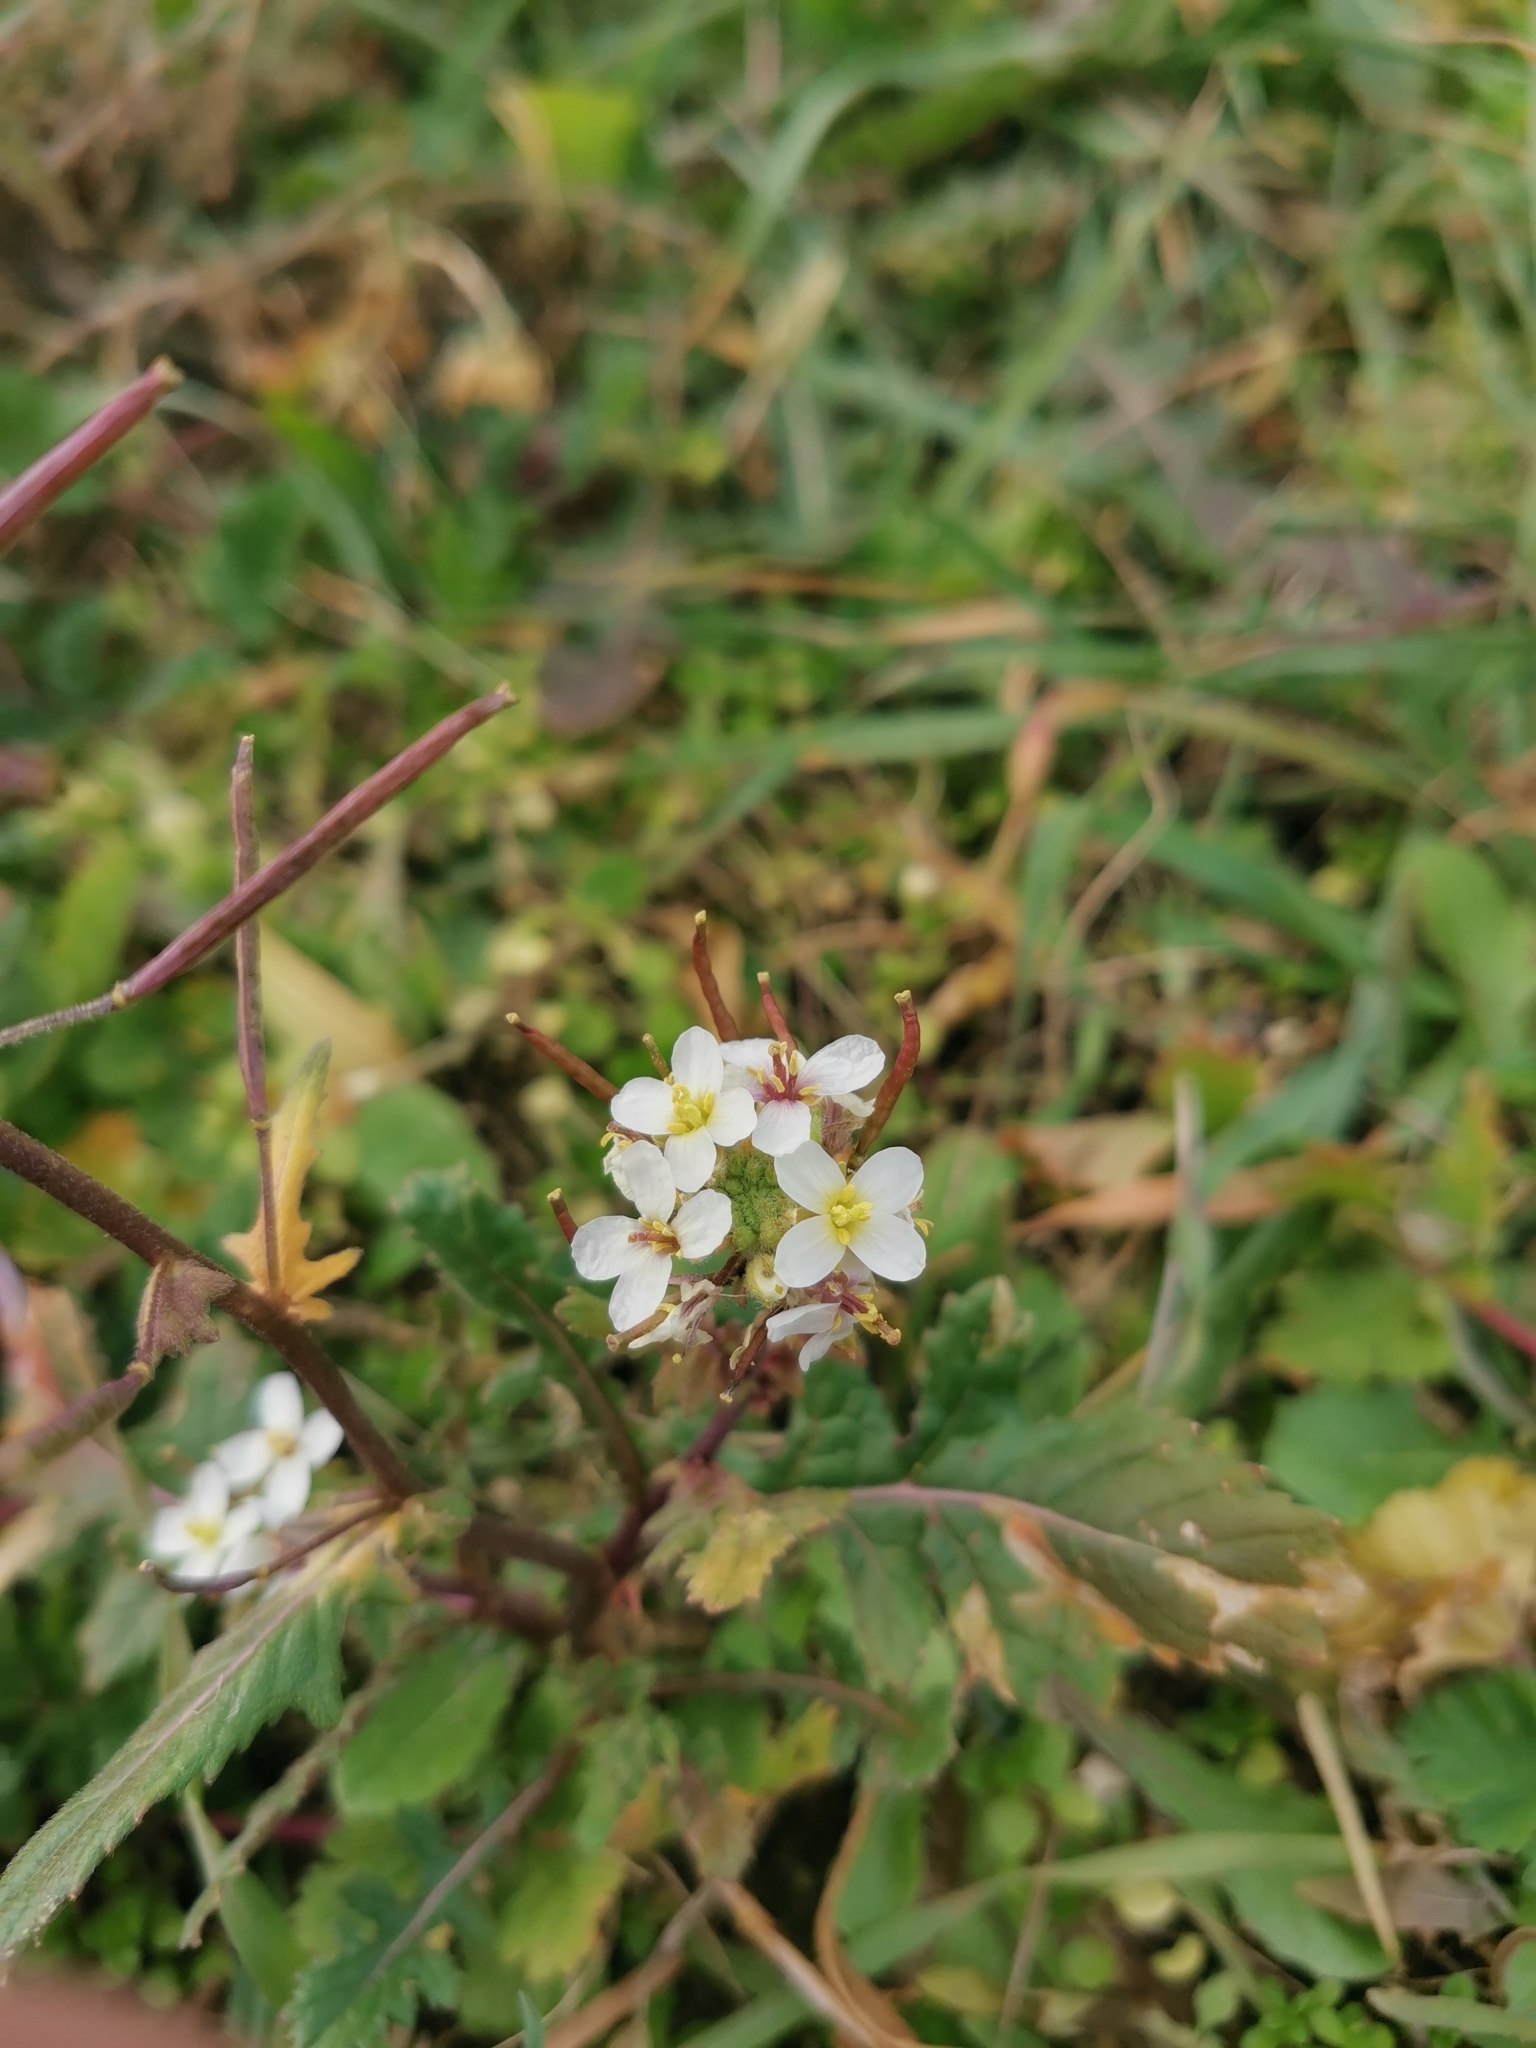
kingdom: Plantae
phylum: Tracheophyta
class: Magnoliopsida
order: Brassicales
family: Brassicaceae
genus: Diplotaxis
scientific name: Diplotaxis erucoides
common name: White rocket
